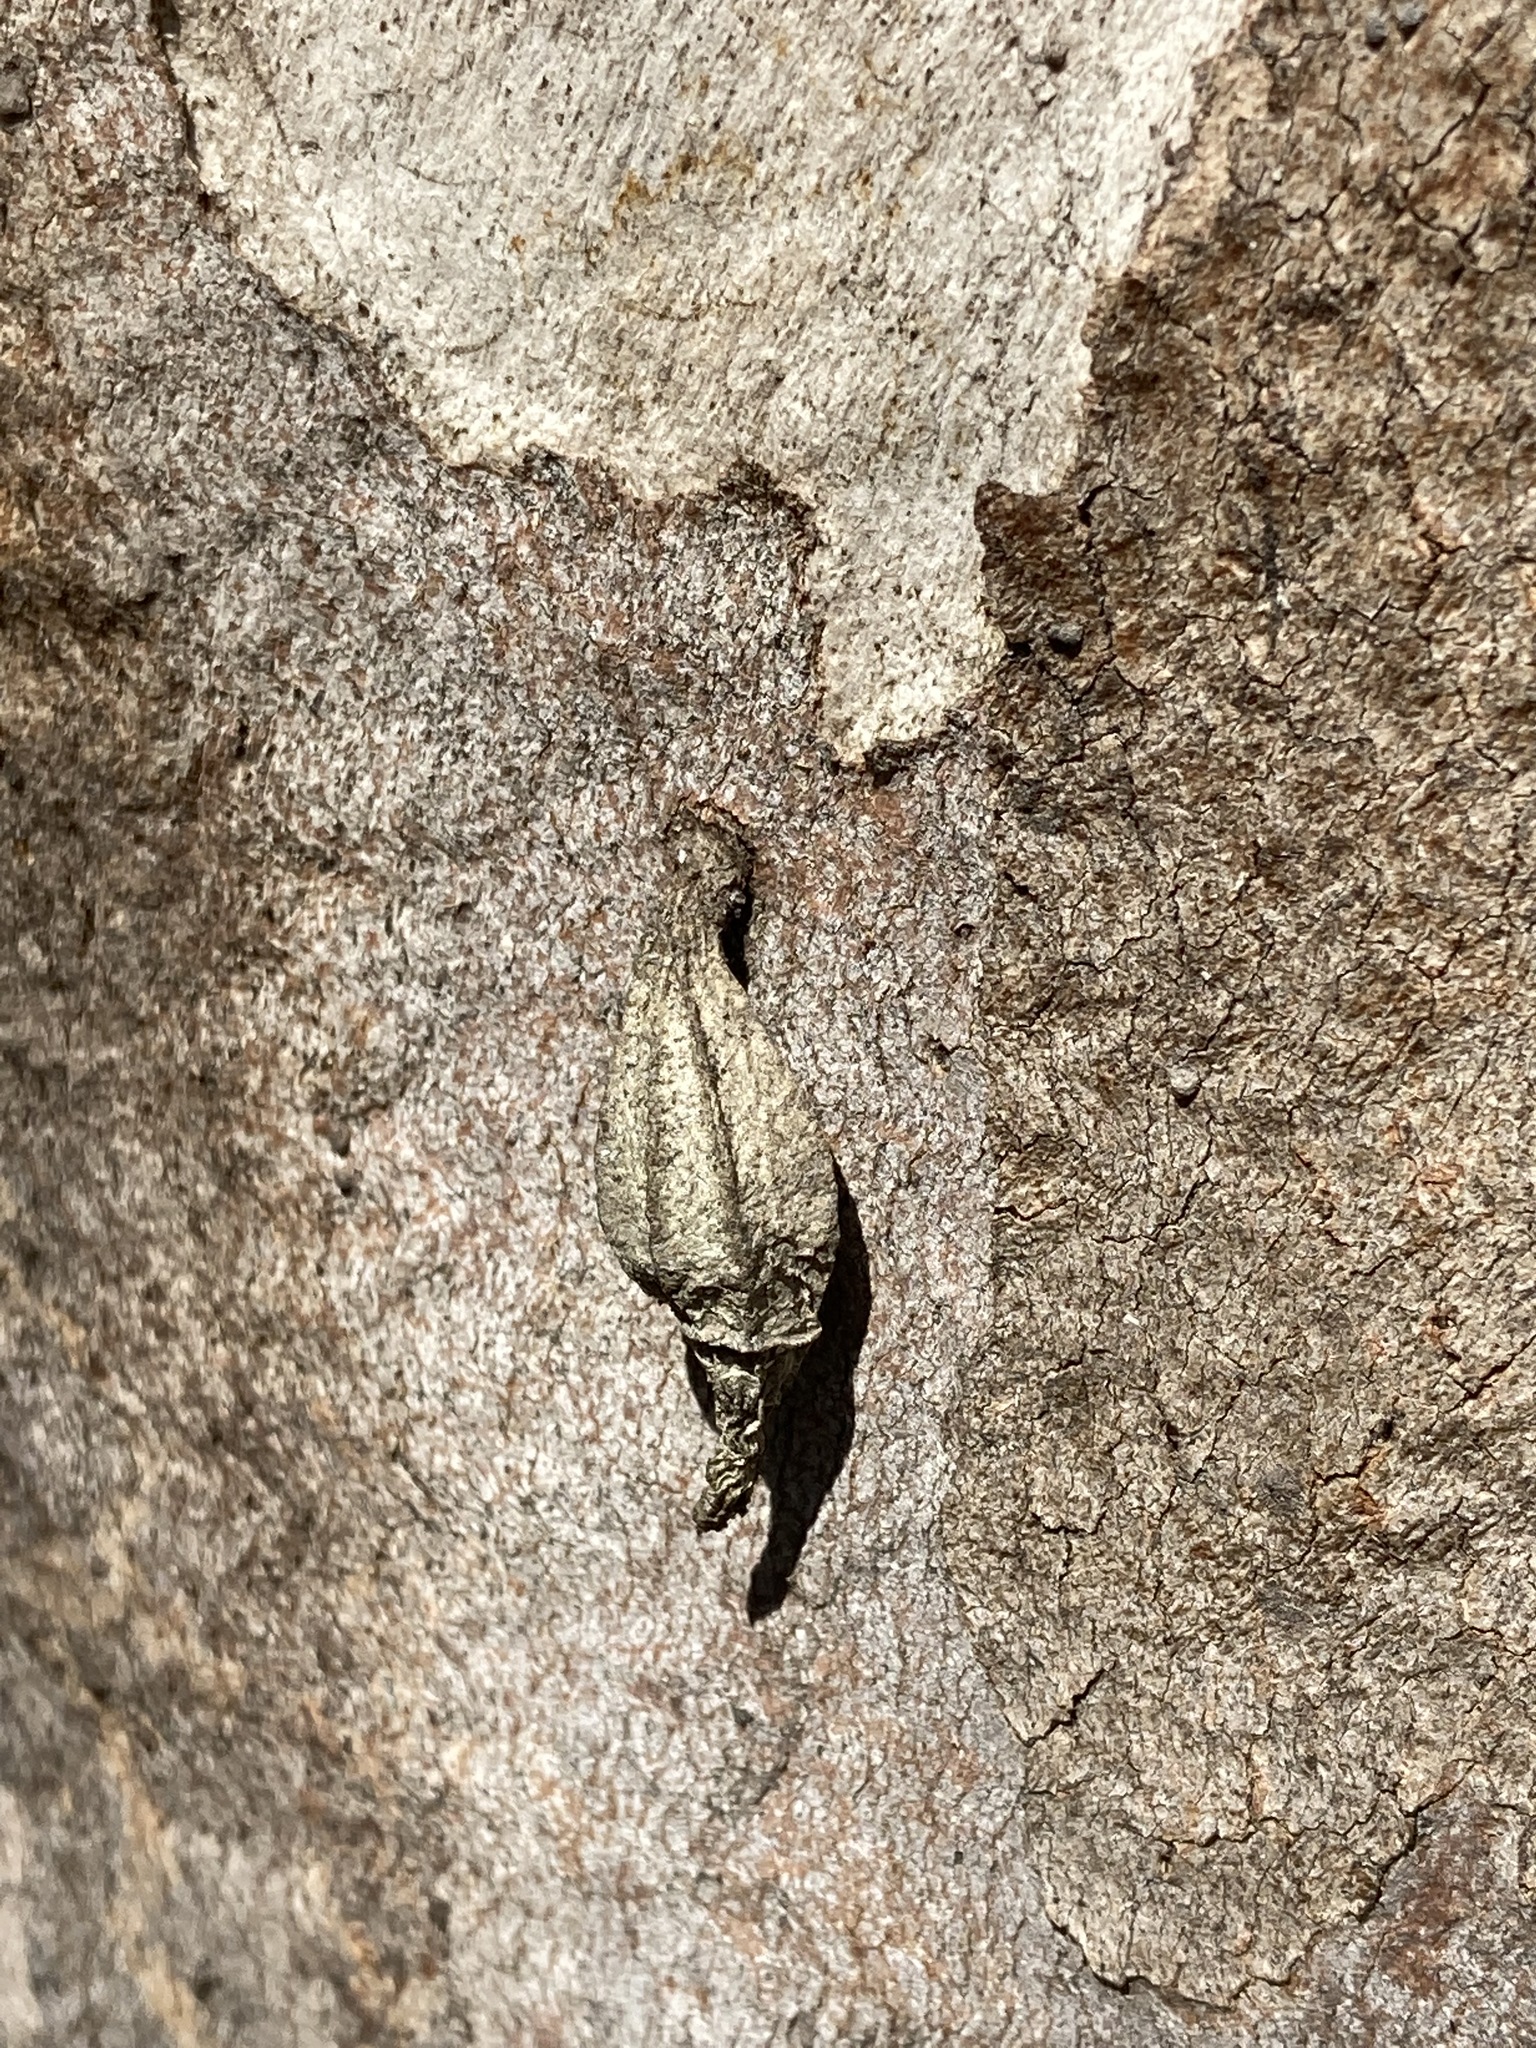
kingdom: Animalia
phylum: Arthropoda
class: Insecta
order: Lepidoptera
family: Psychidae
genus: Hyalarcta
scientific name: Hyalarcta nigrescens
